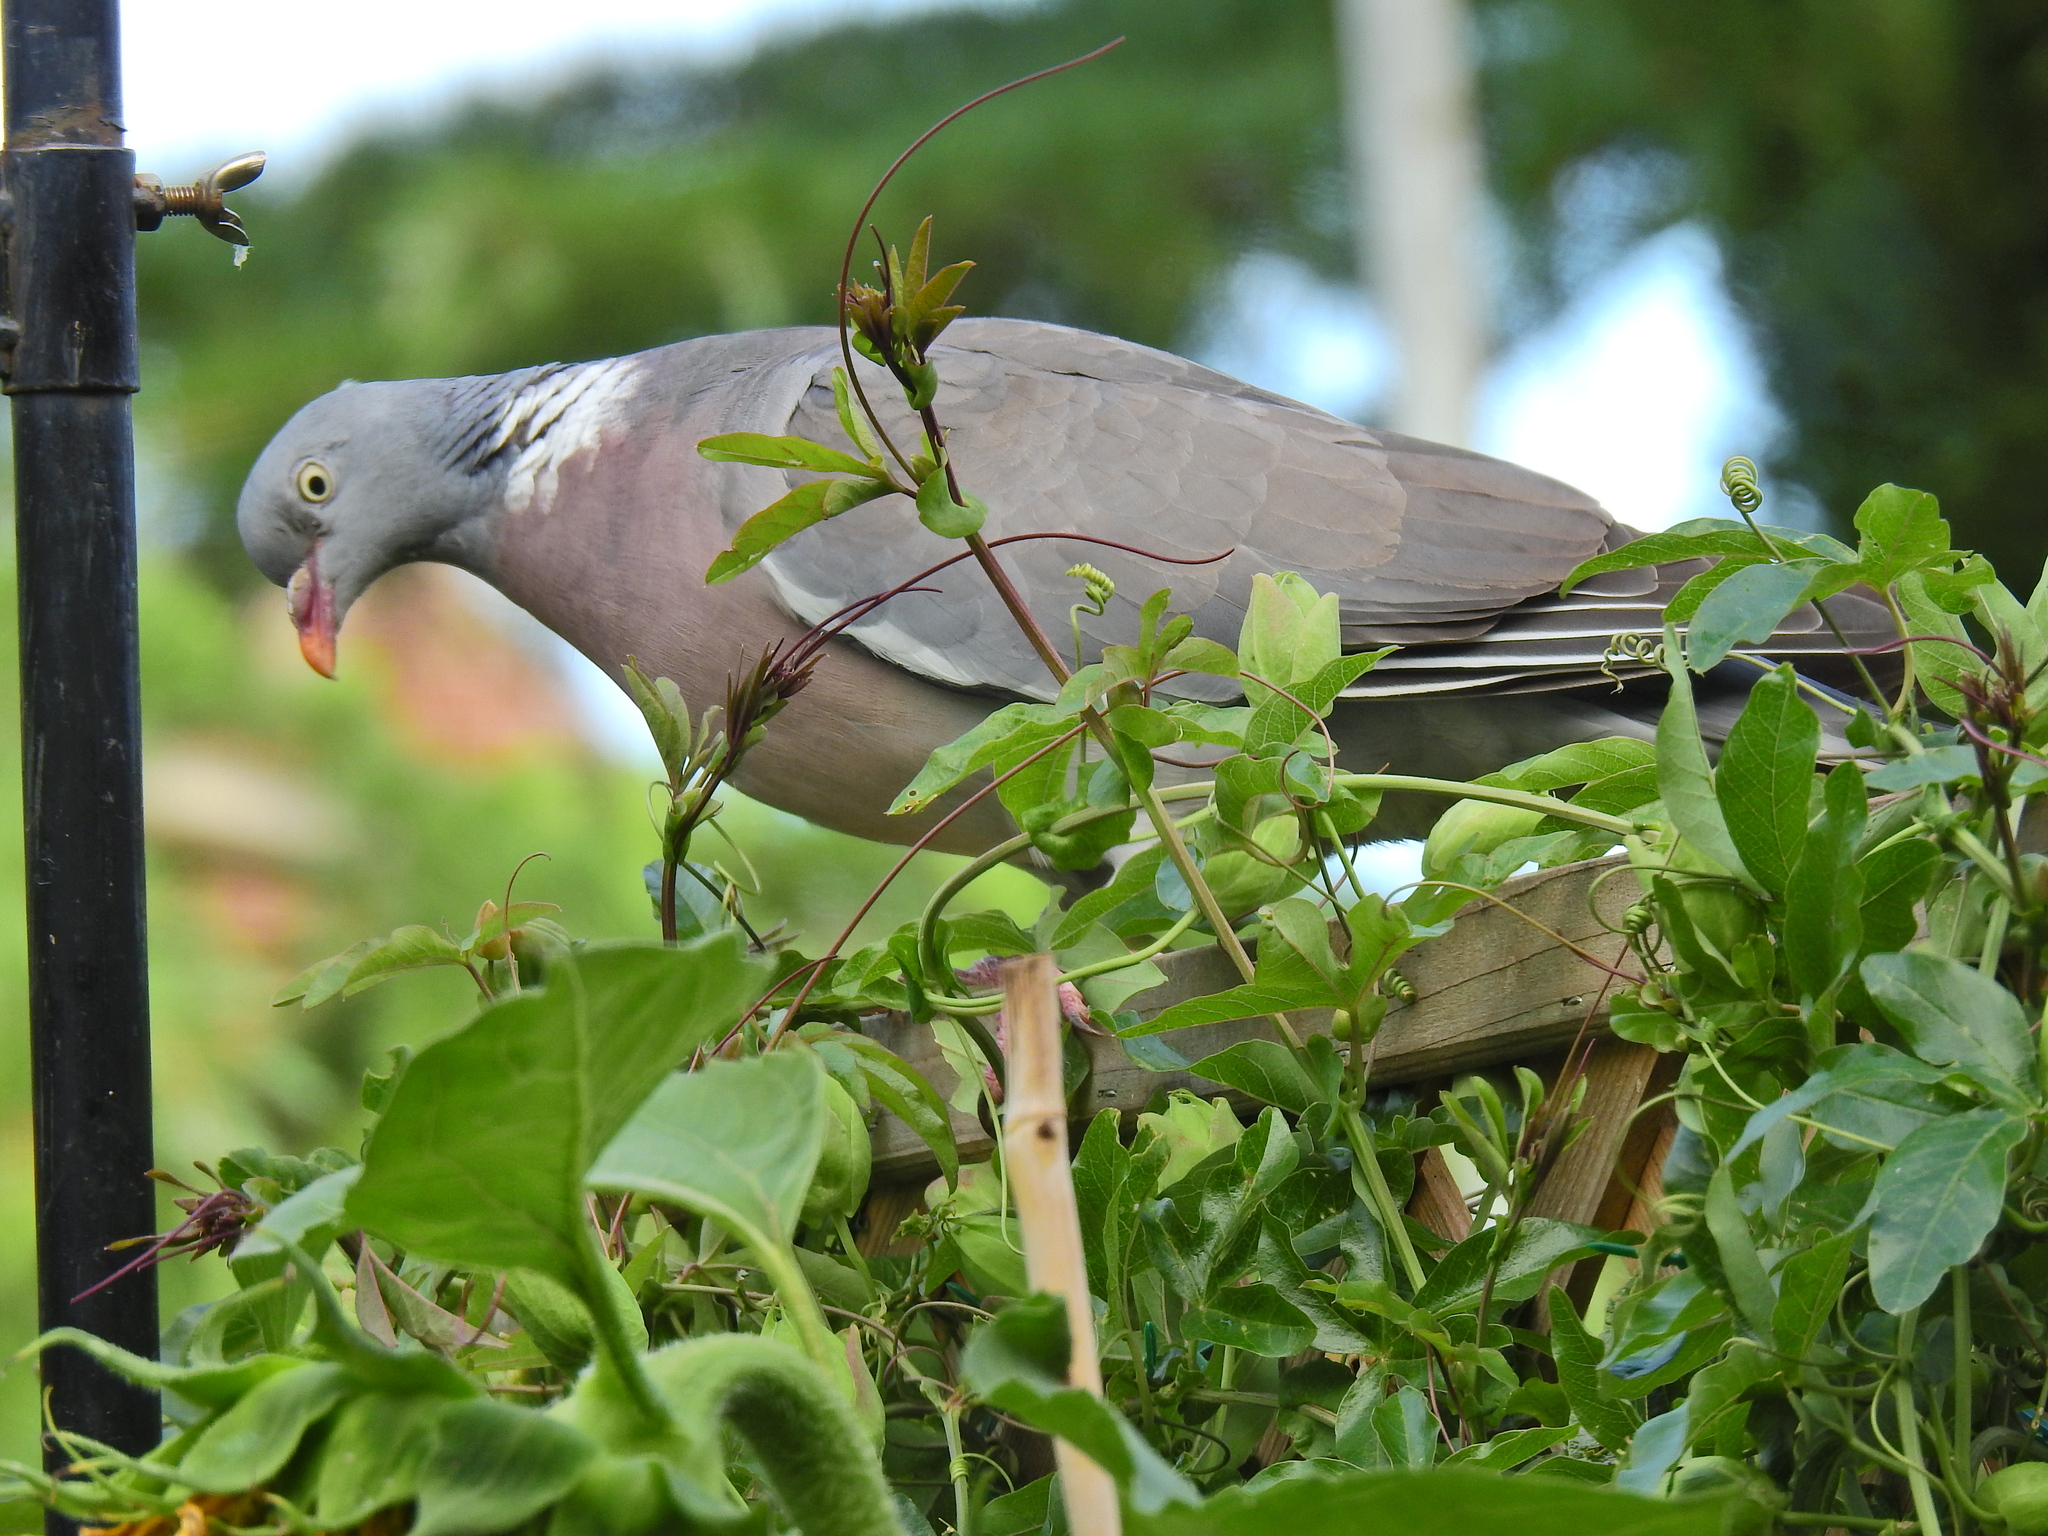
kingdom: Animalia
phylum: Chordata
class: Aves
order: Columbiformes
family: Columbidae
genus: Columba
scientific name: Columba palumbus
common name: Common wood pigeon
